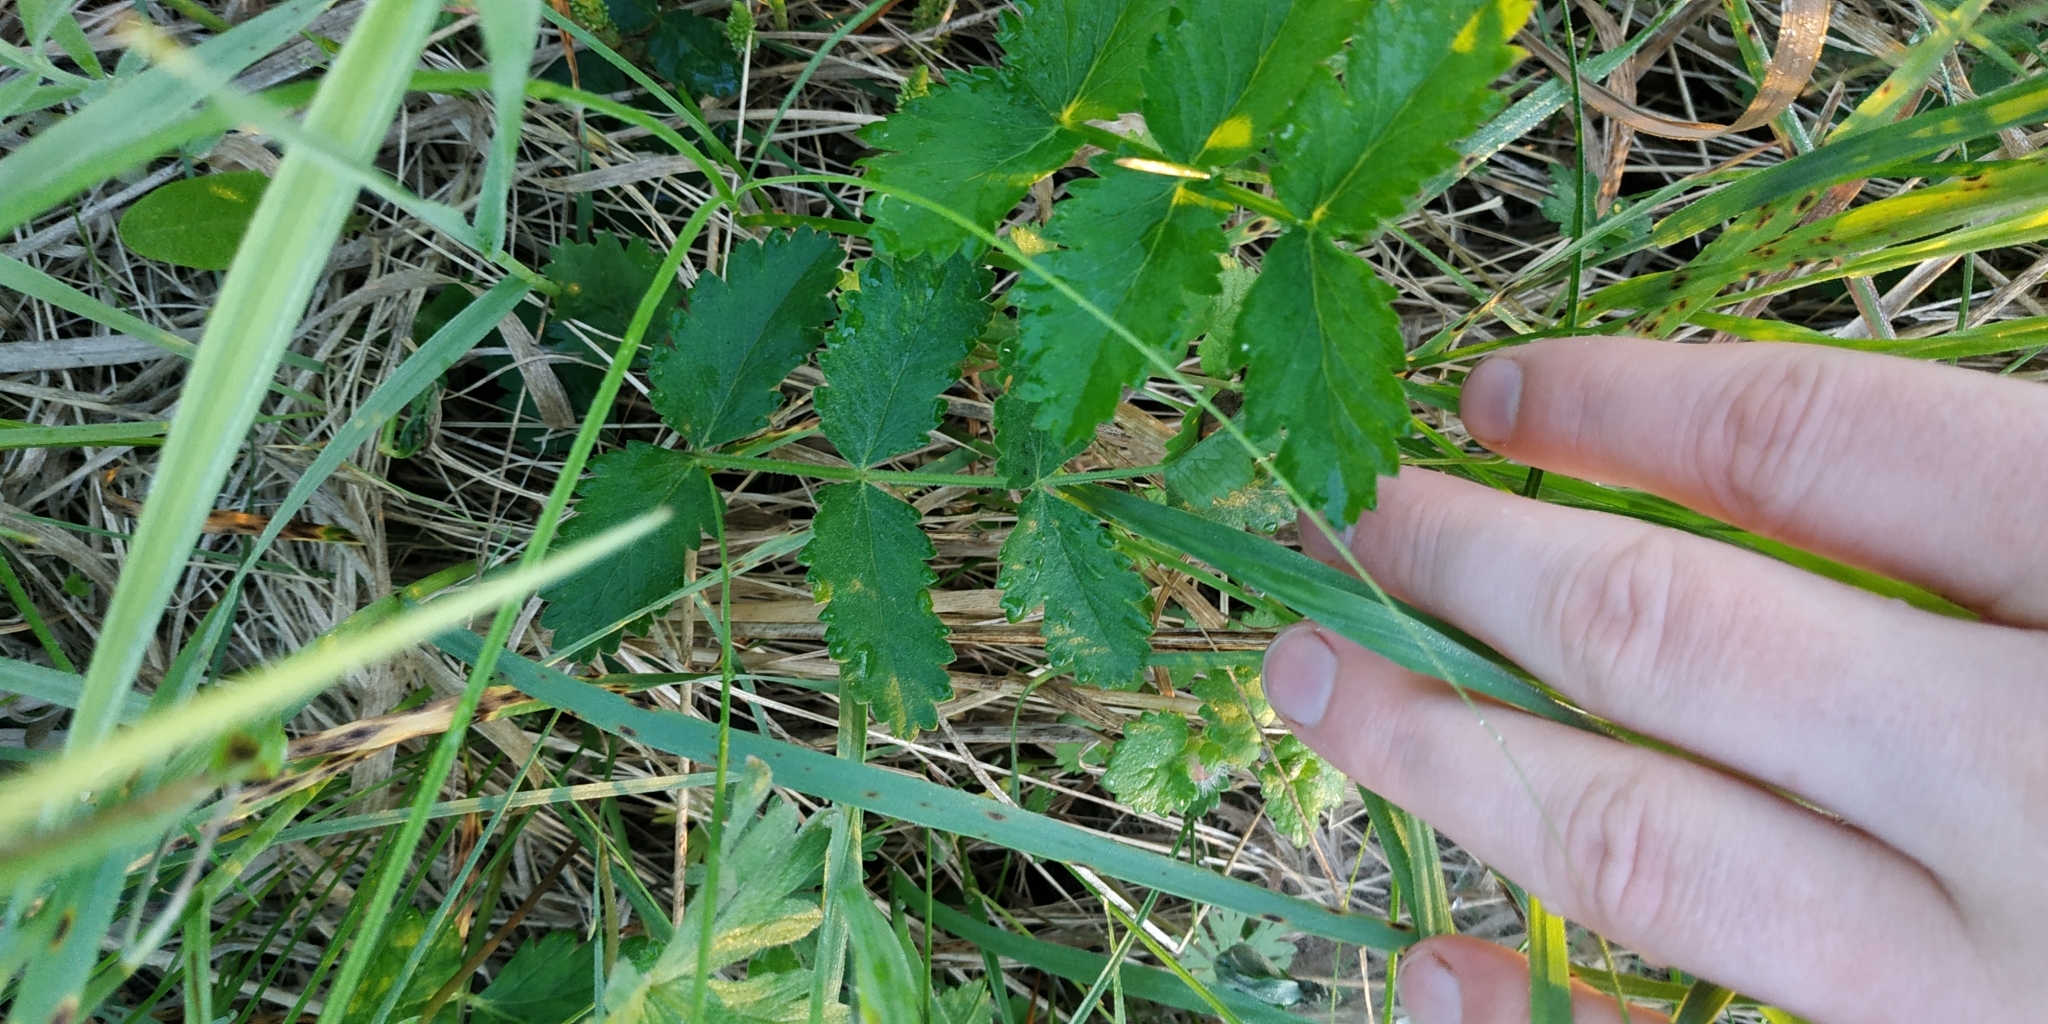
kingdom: Plantae
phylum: Tracheophyta
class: Magnoliopsida
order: Apiales
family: Apiaceae
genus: Pimpinella
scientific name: Pimpinella saxifraga
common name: Burnet-saxifrage
